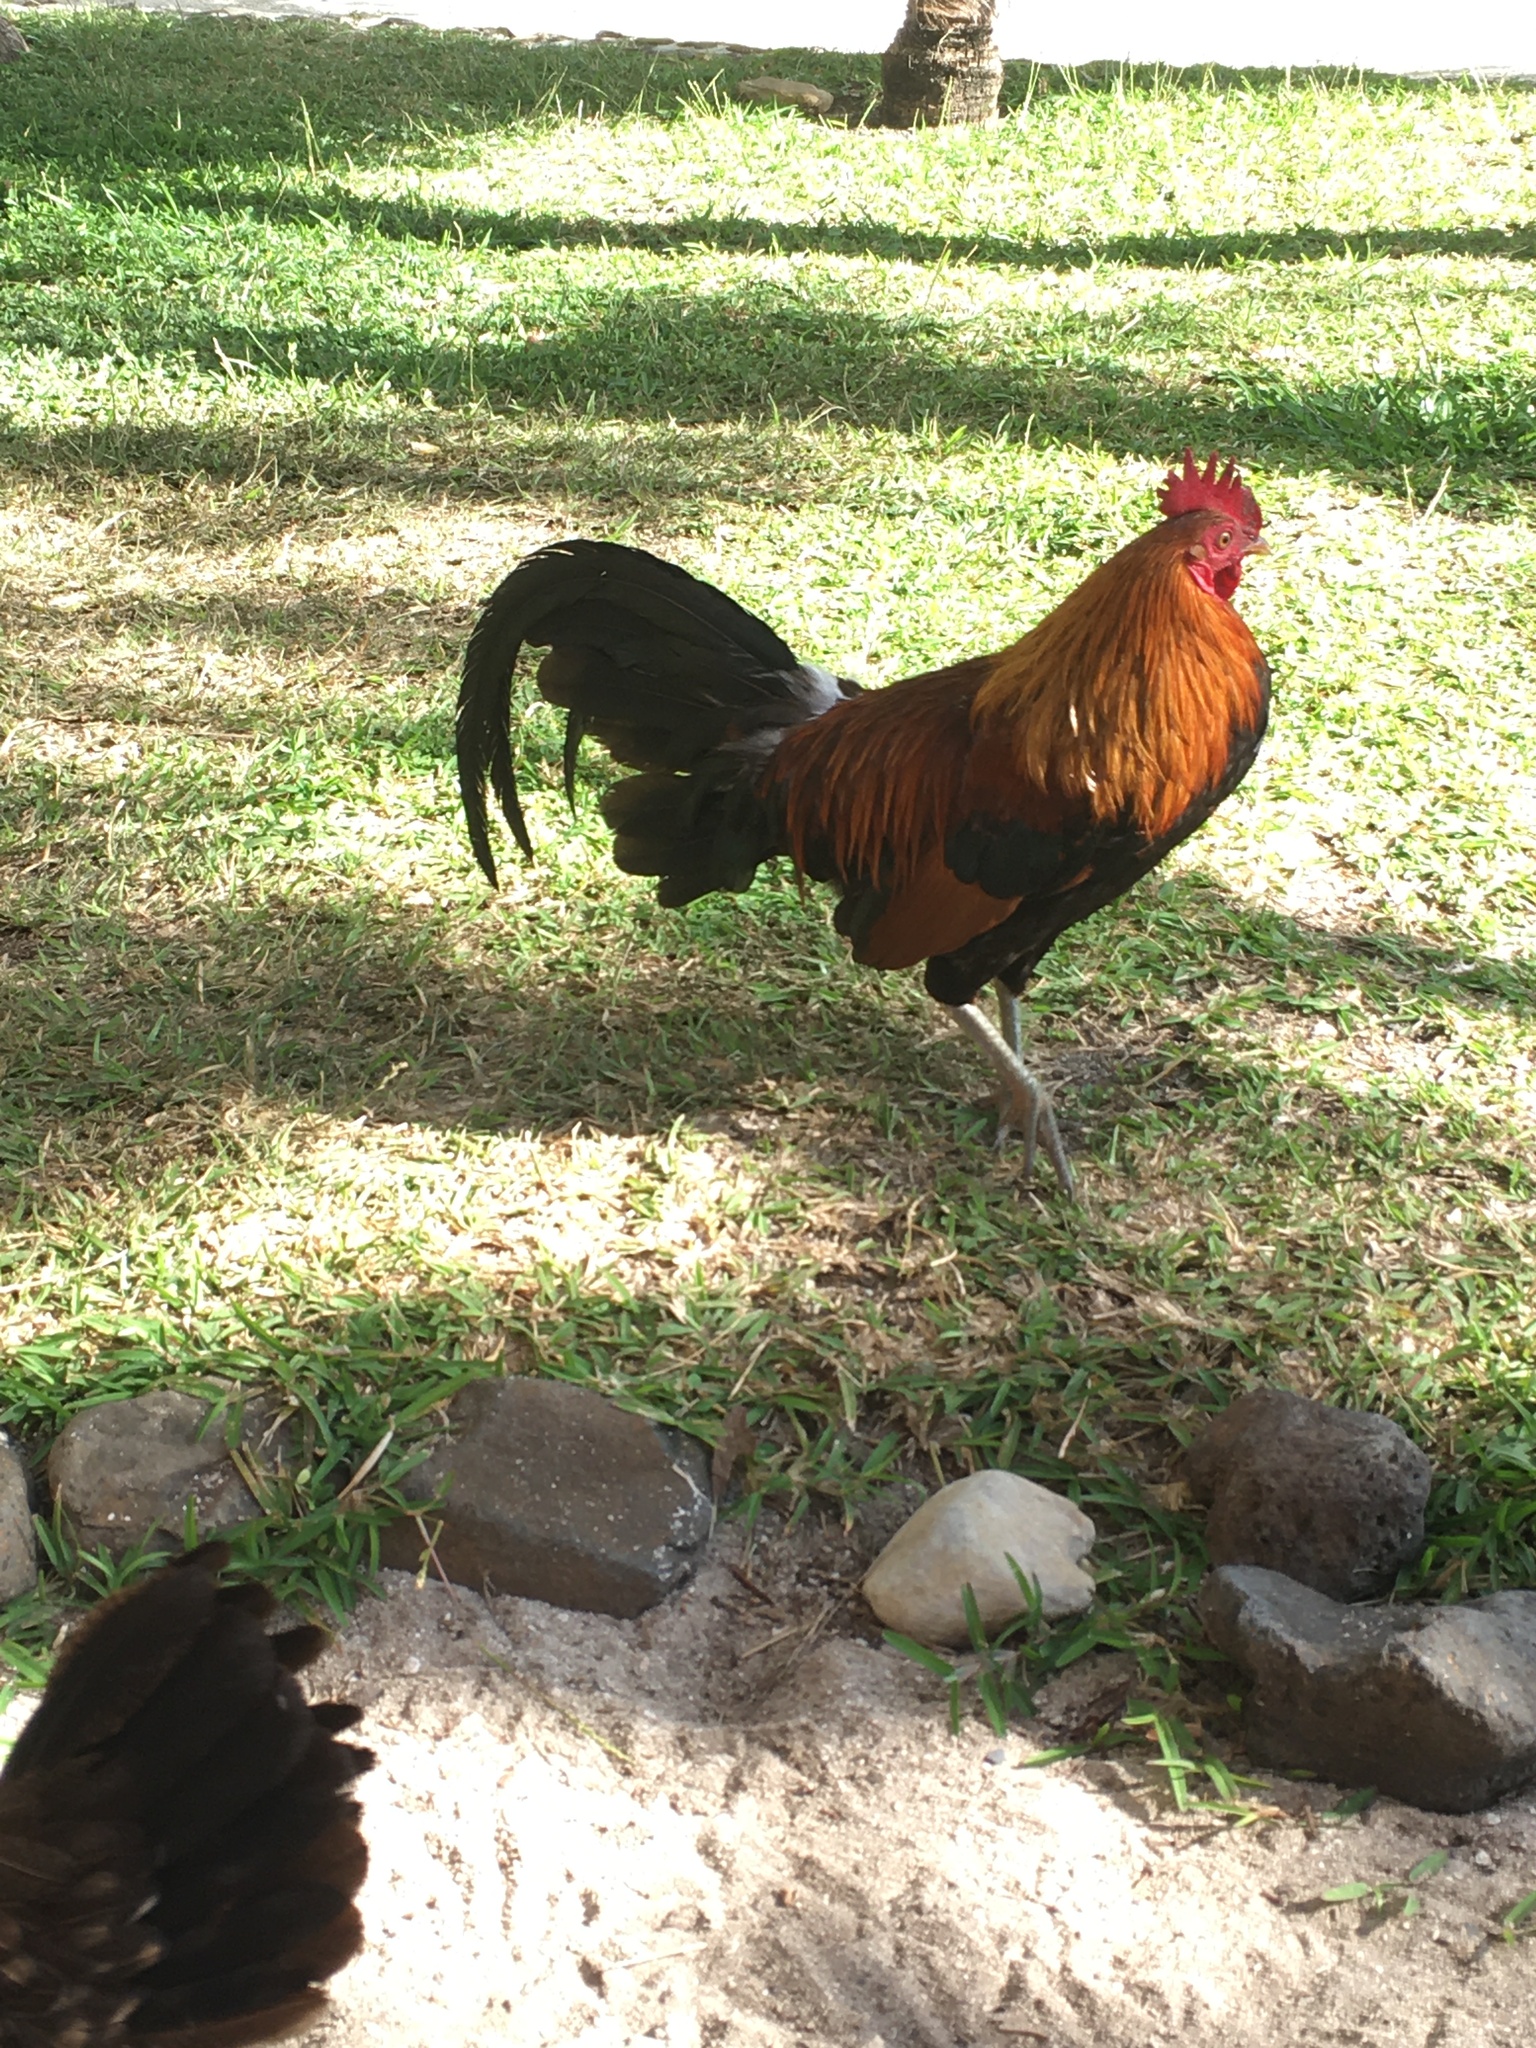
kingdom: Animalia
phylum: Chordata
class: Aves
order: Galliformes
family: Phasianidae
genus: Gallus
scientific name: Gallus gallus
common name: Red junglefowl
